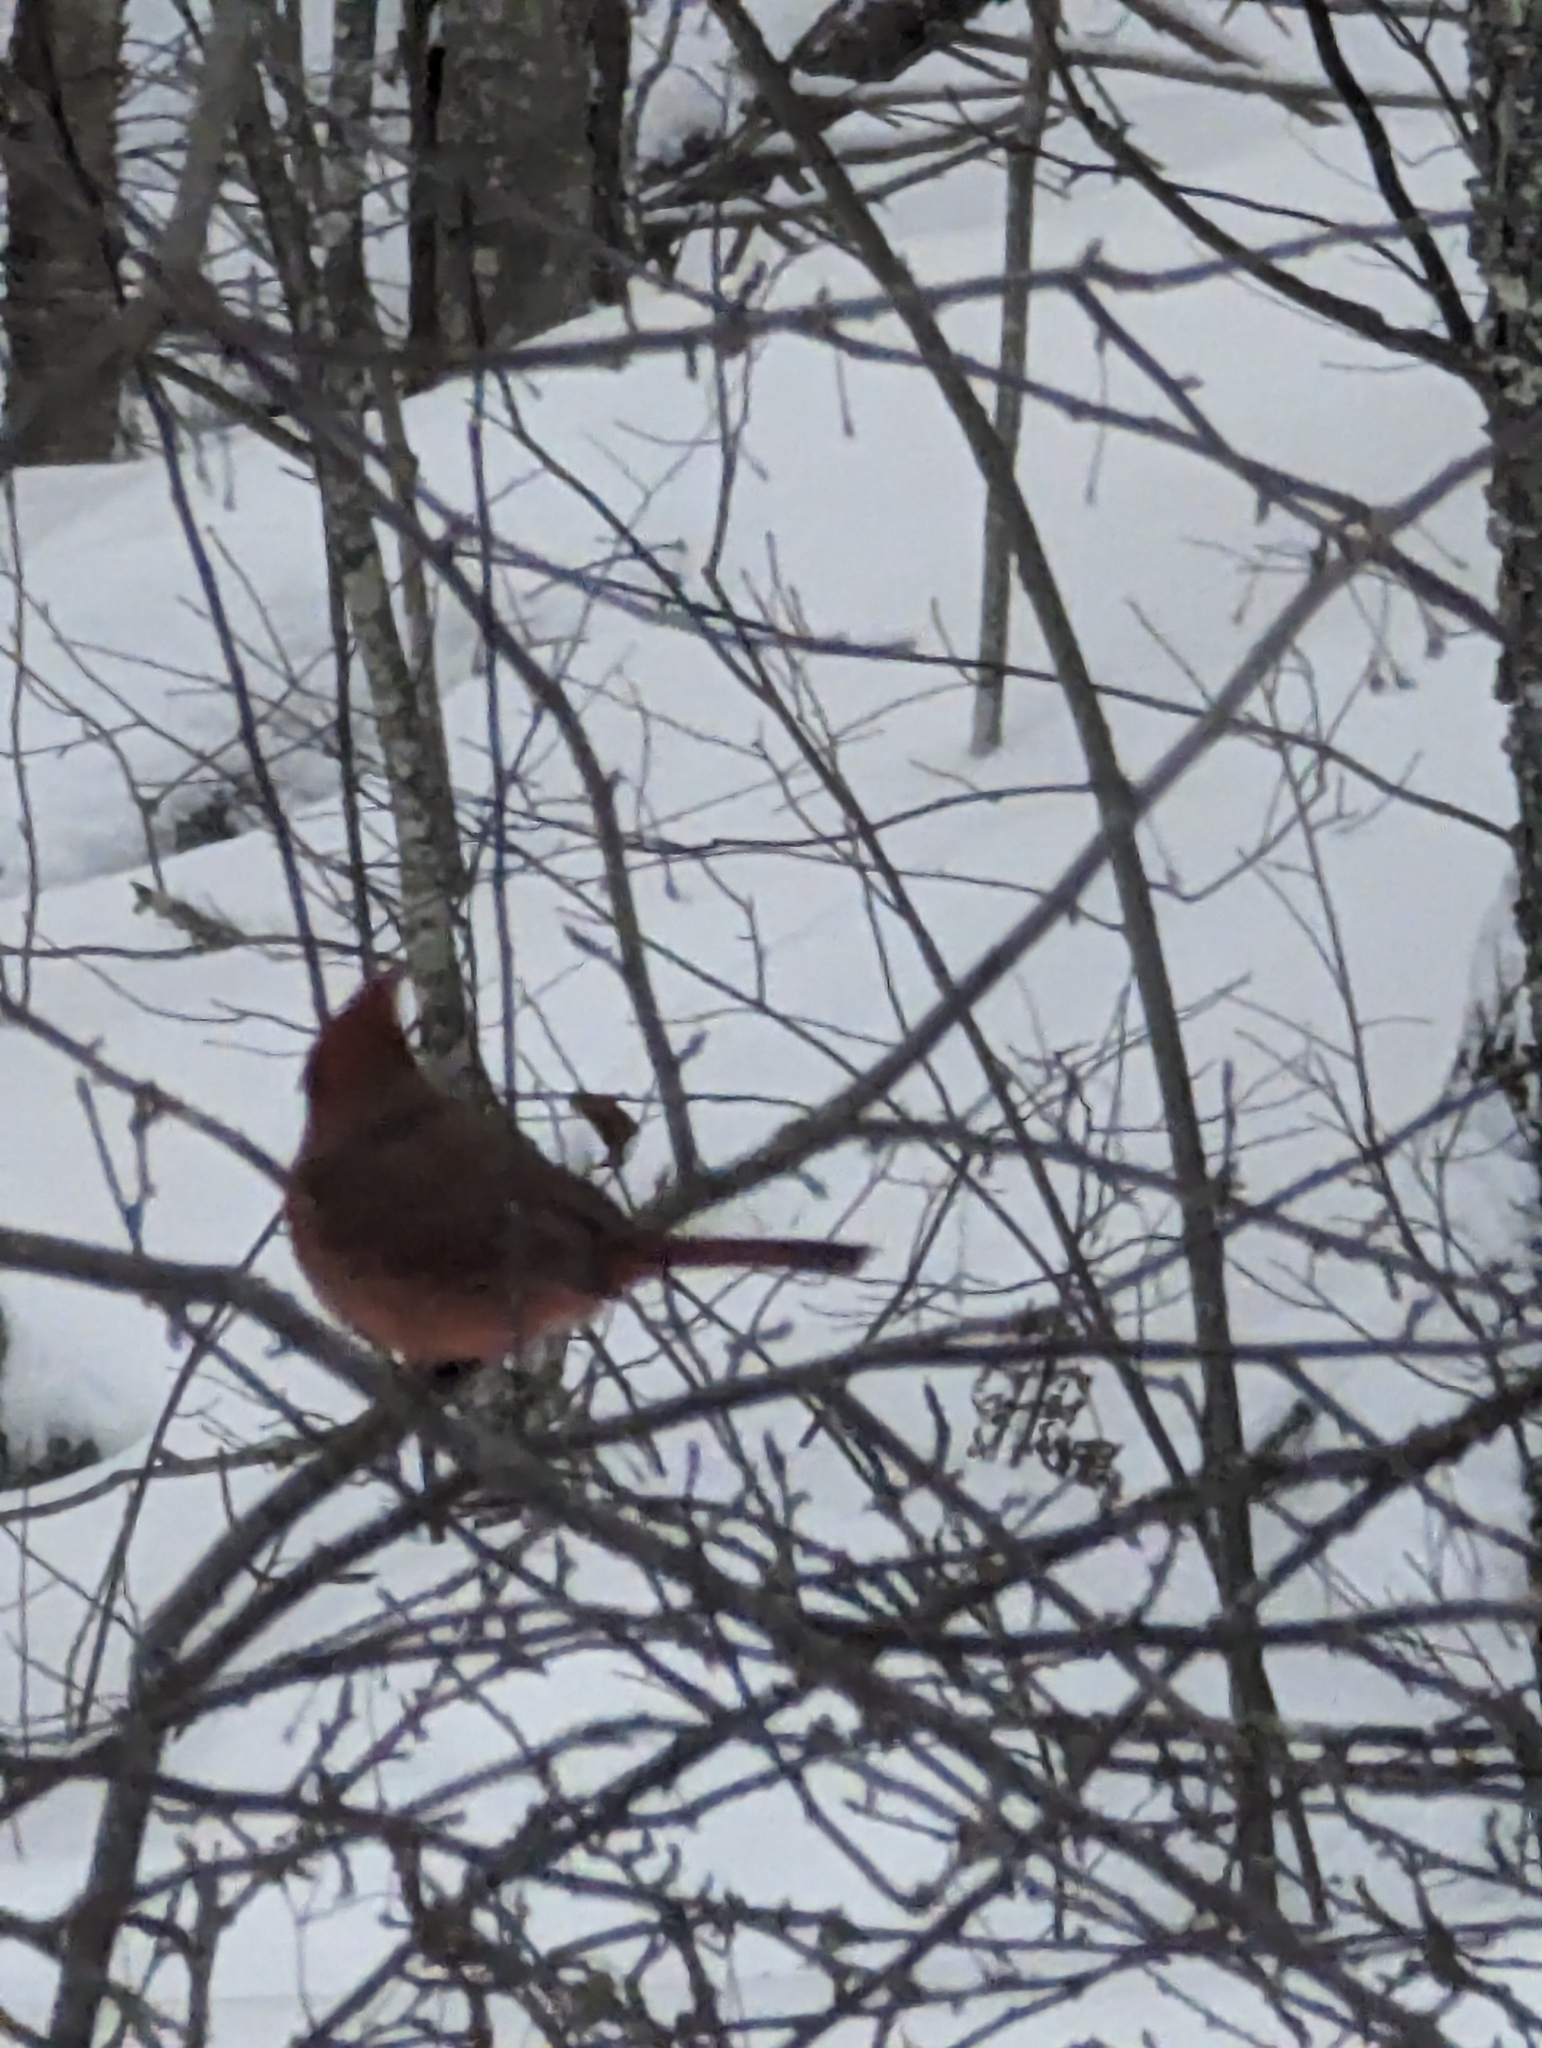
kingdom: Animalia
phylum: Chordata
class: Aves
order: Passeriformes
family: Cardinalidae
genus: Cardinalis
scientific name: Cardinalis cardinalis
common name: Northern cardinal
